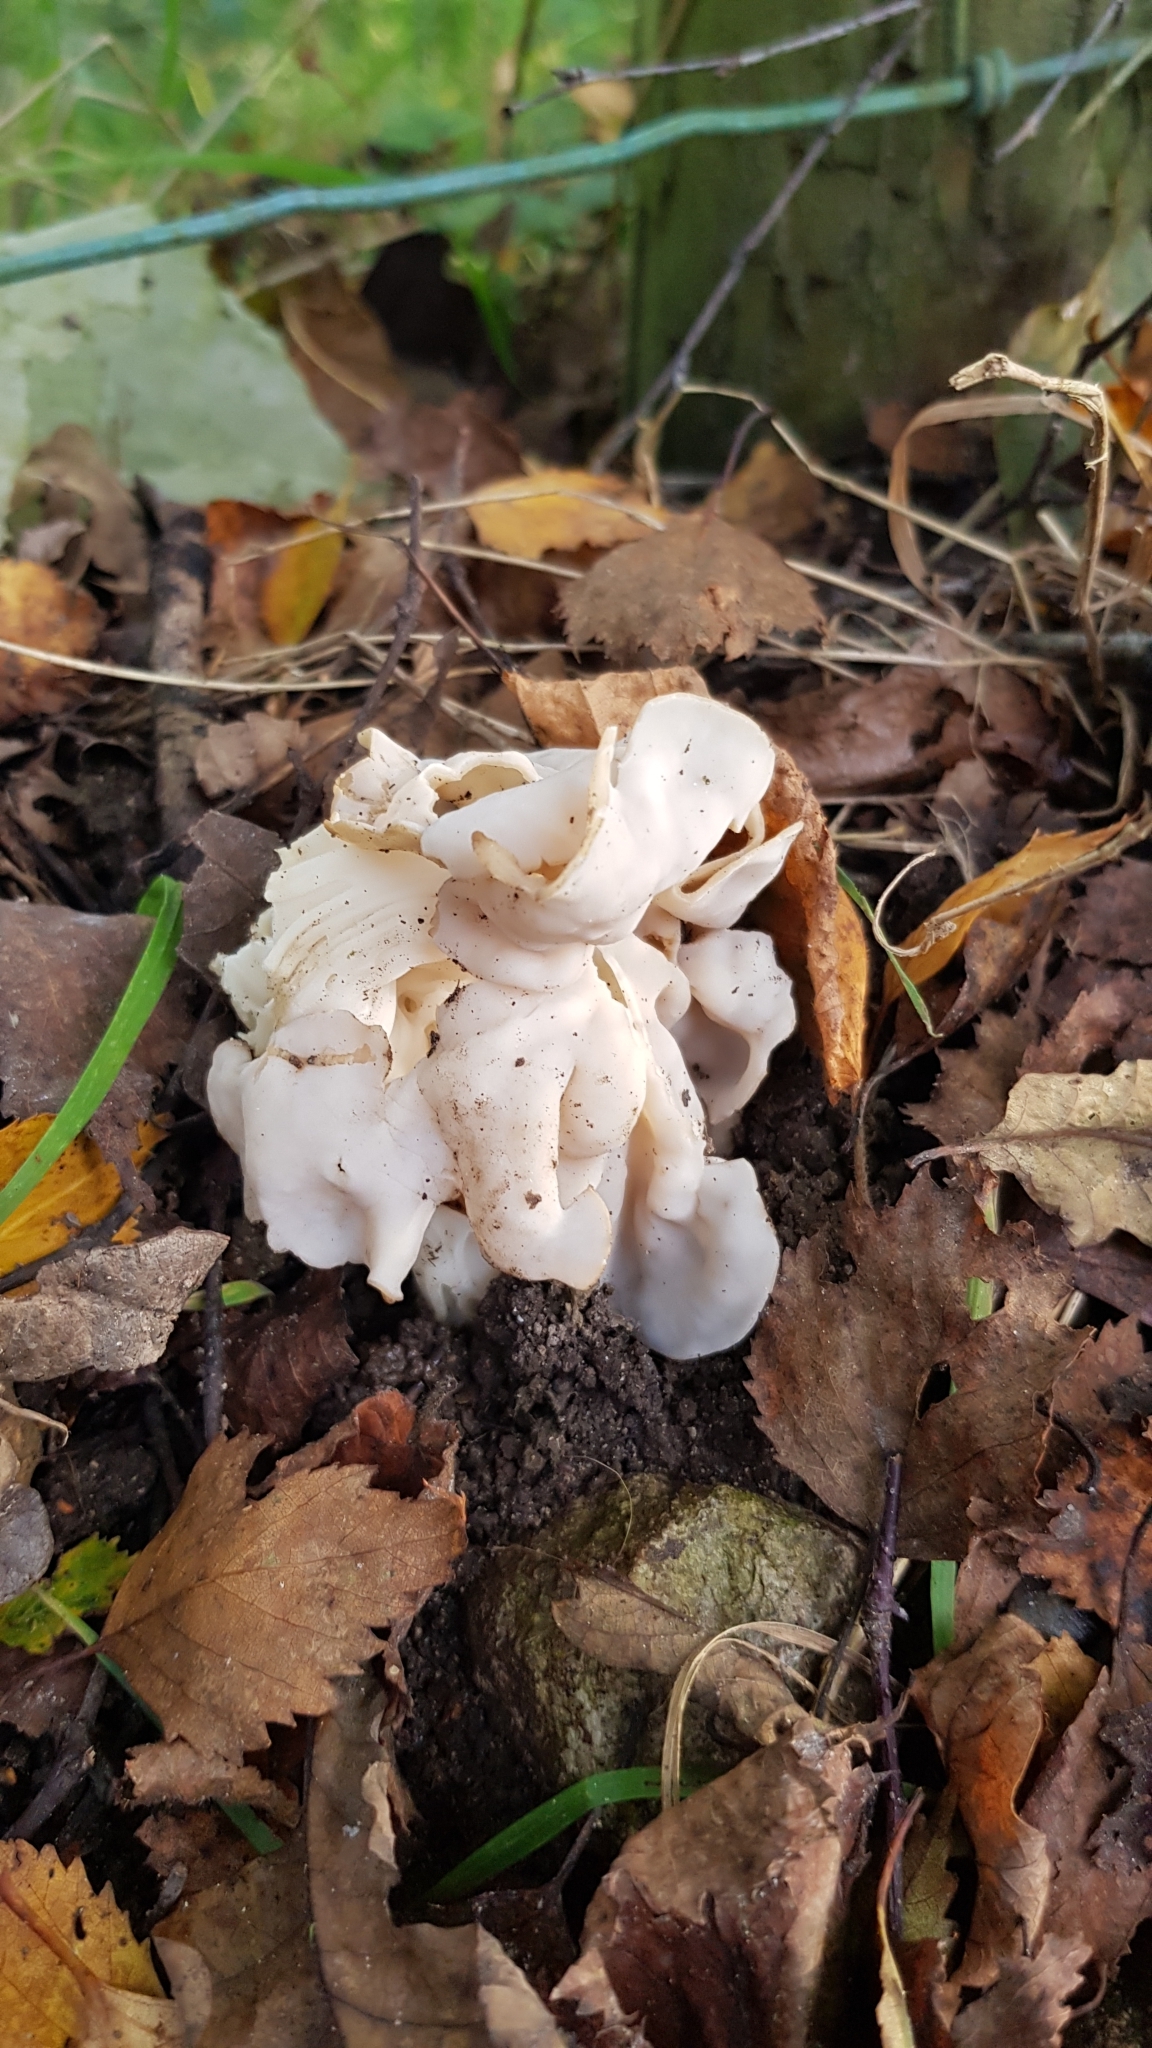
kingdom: Fungi
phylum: Ascomycota
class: Pezizomycetes
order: Pezizales
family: Helvellaceae
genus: Helvella
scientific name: Helvella crispa
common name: White saddle
